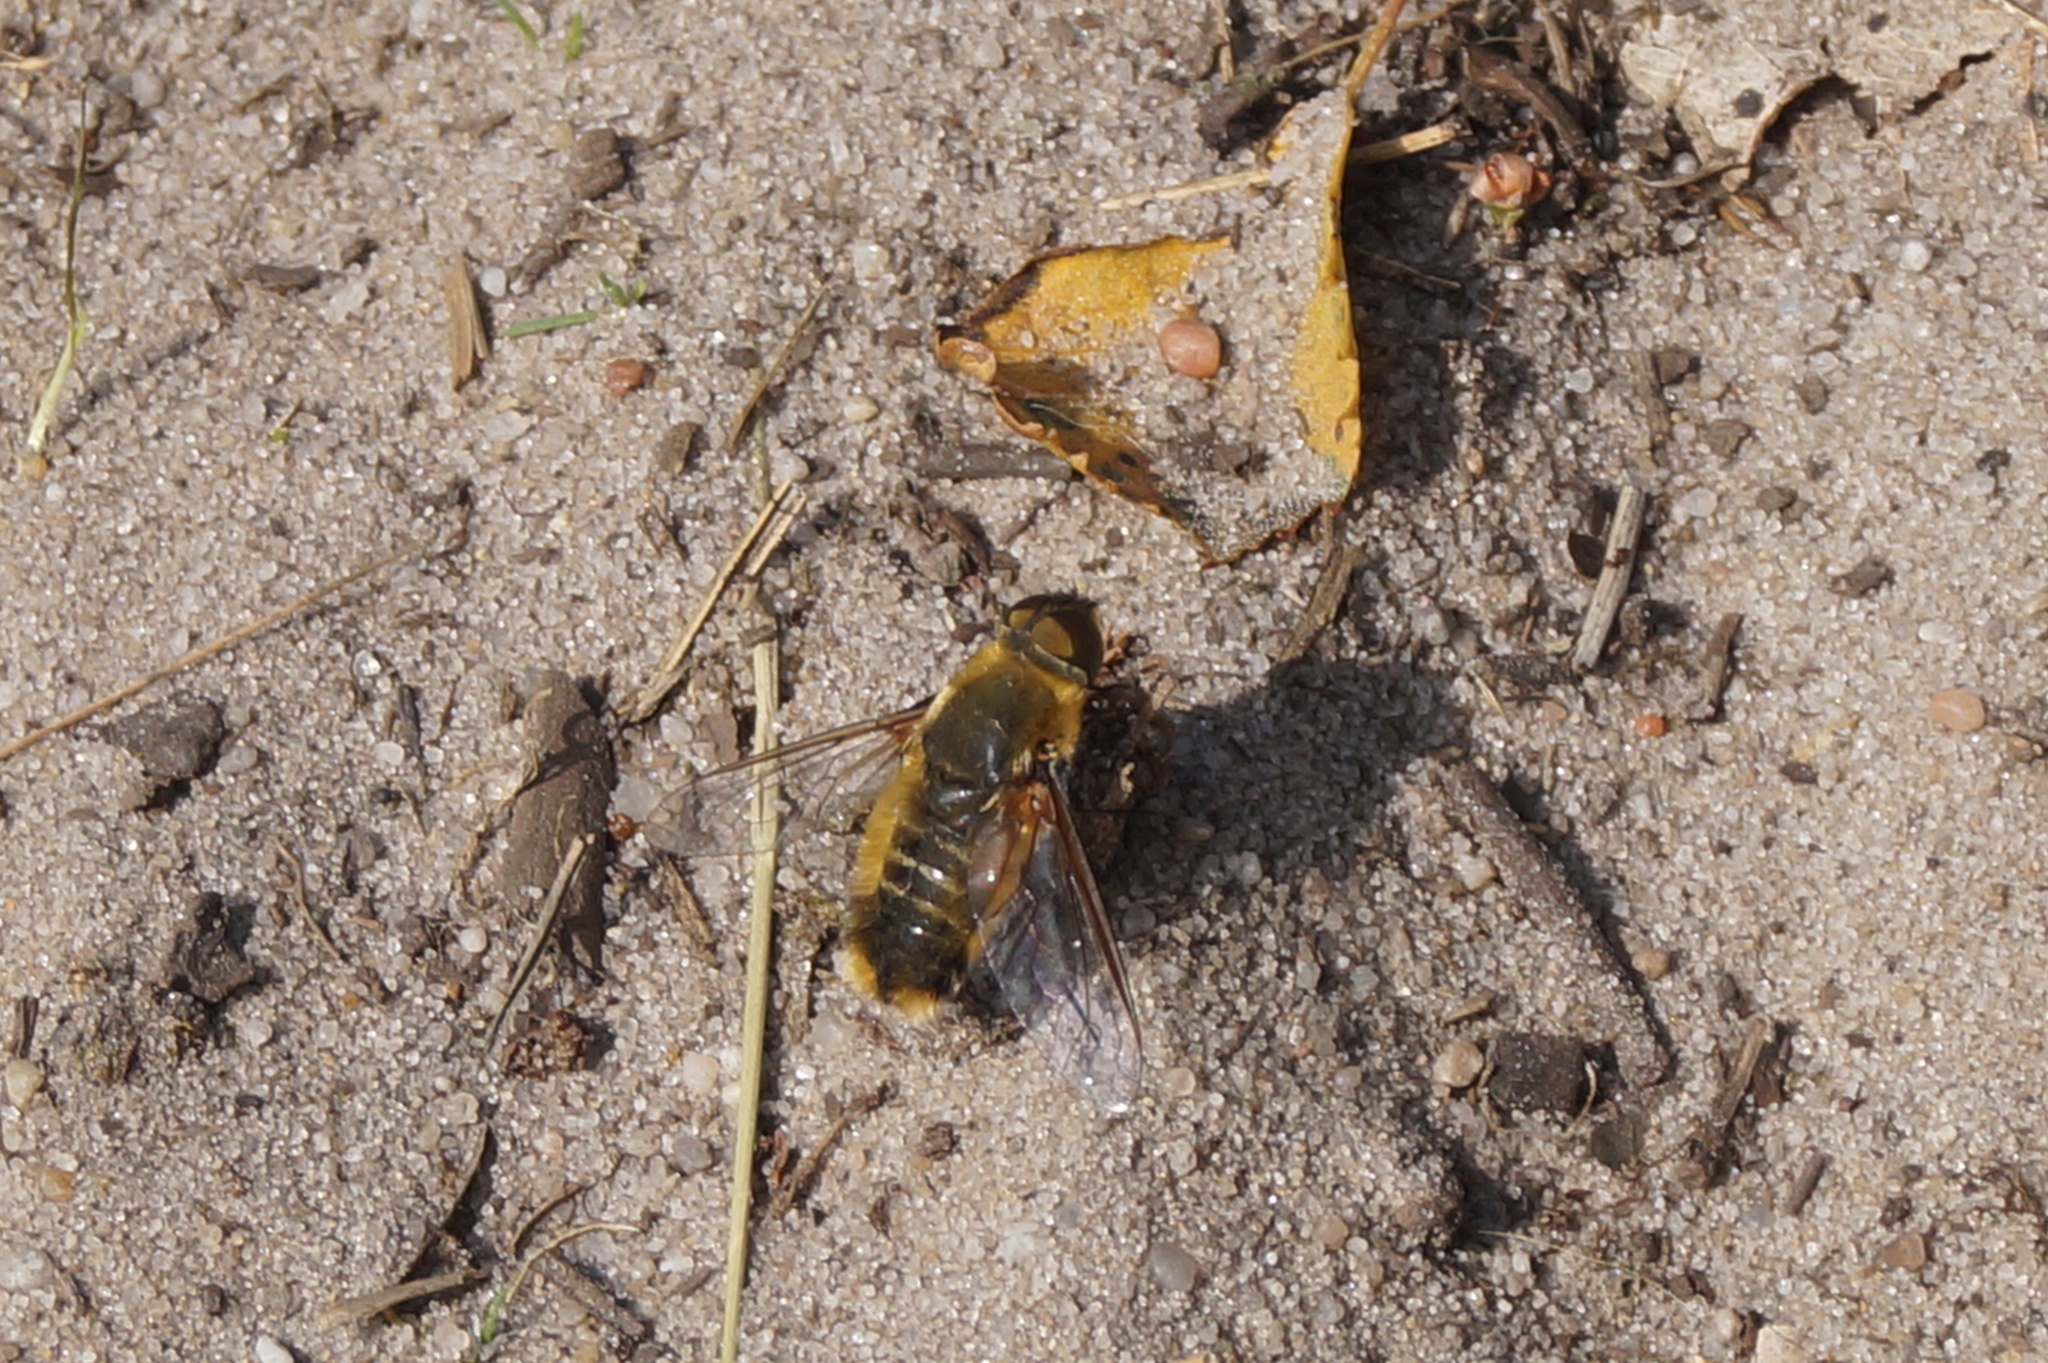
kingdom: Animalia
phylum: Arthropoda
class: Insecta
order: Diptera
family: Bombyliidae
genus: Villa
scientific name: Villa hottentotta
